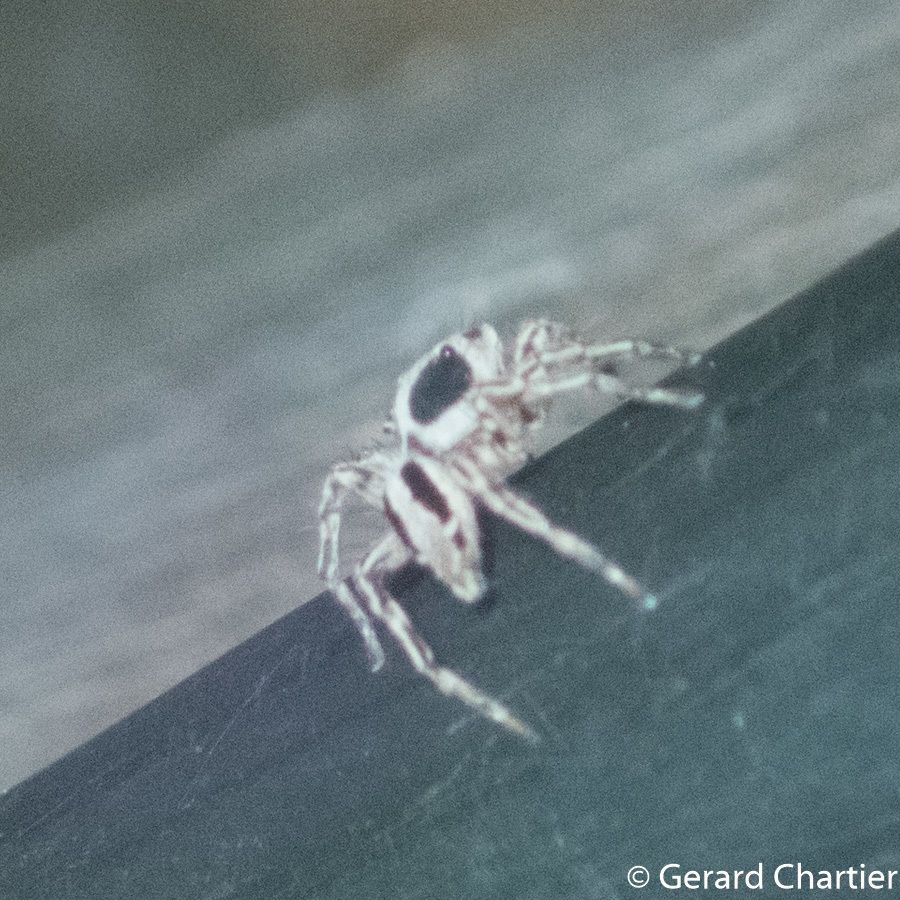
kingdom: Animalia
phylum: Arthropoda
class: Arachnida
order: Araneae
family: Salticidae
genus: Plexippus
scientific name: Plexippus petersi
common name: Jumping spider
